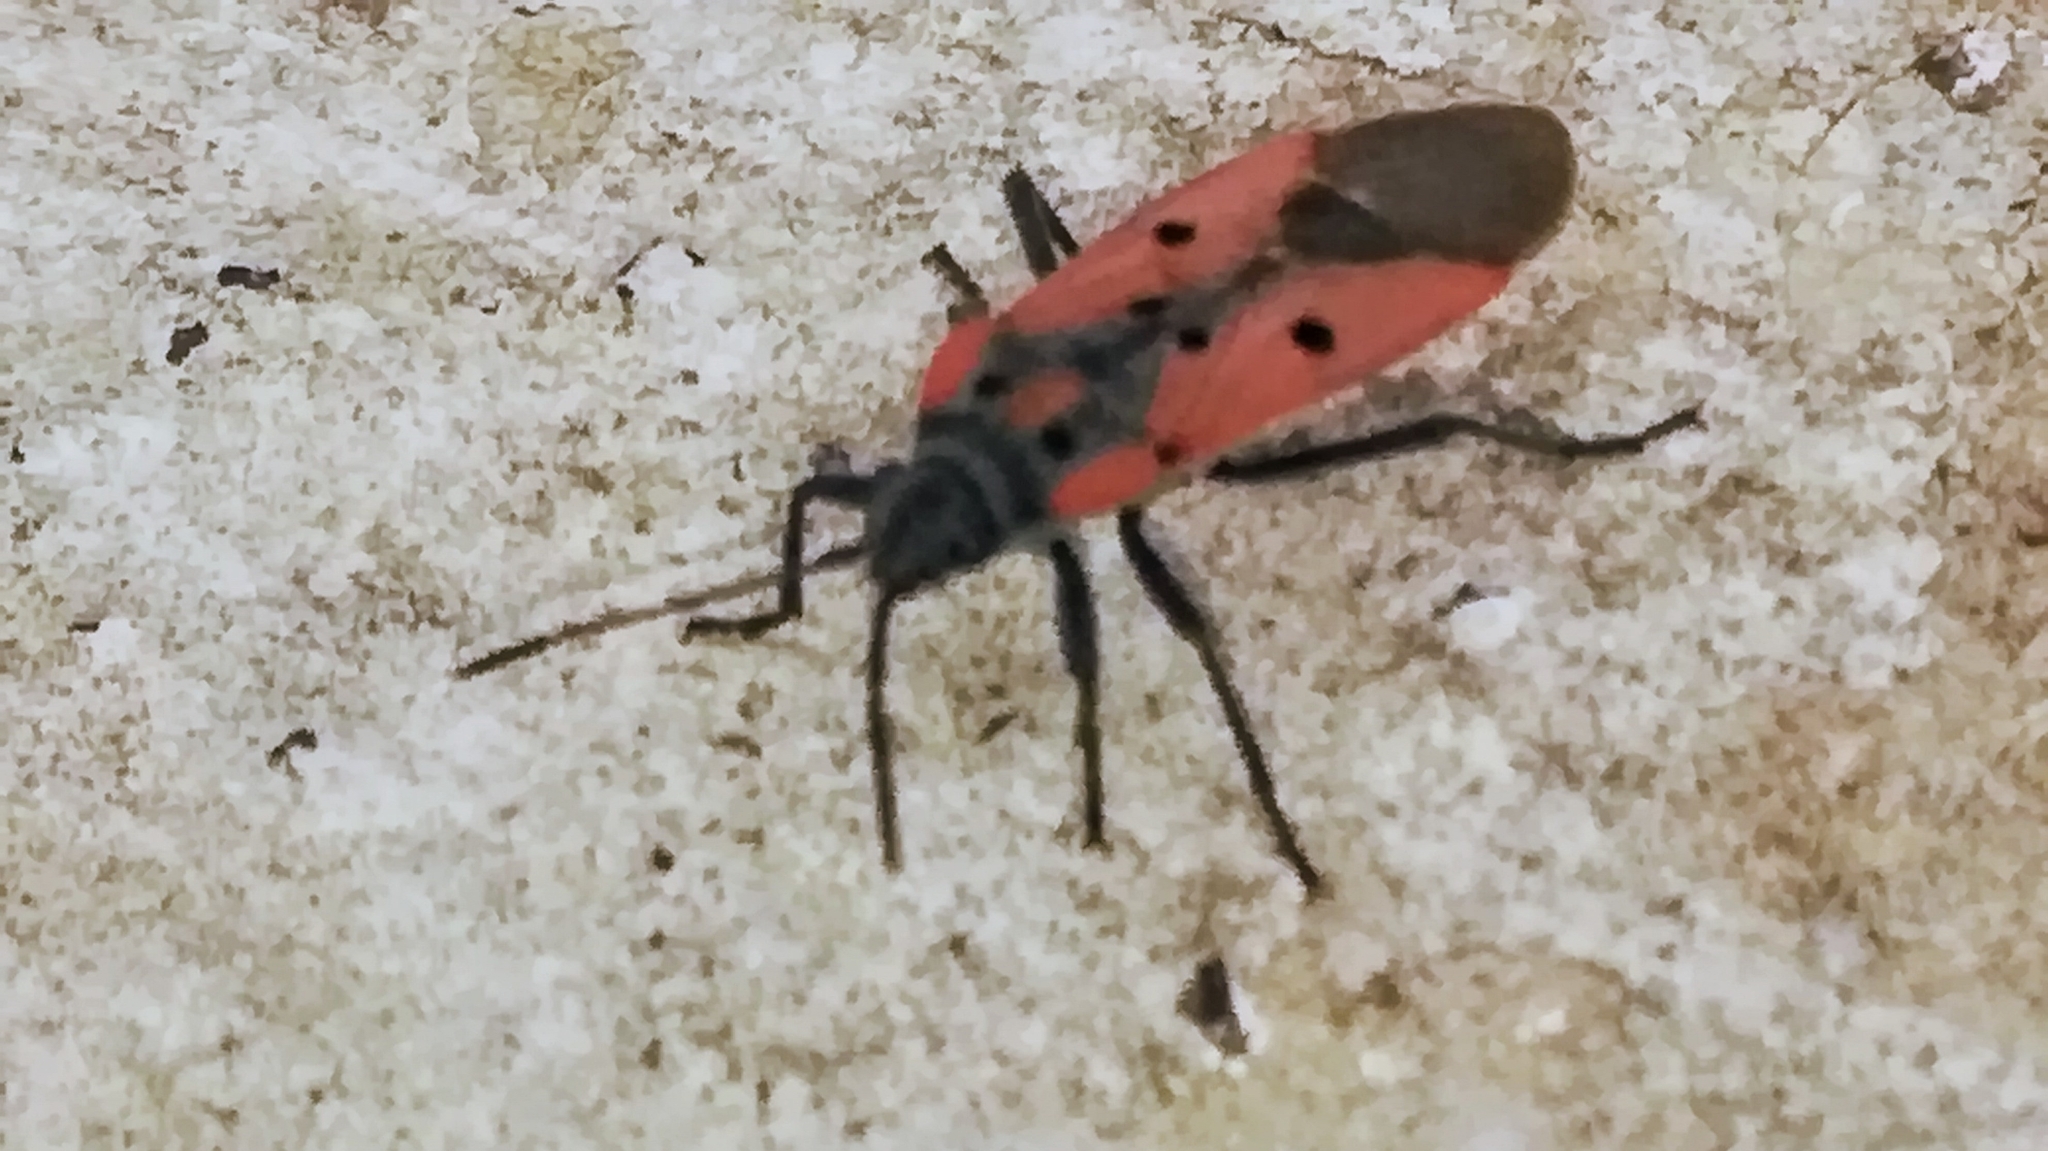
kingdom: Animalia
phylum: Arthropoda
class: Insecta
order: Hemiptera
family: Lygaeidae
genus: Lygaeus
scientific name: Lygaeus creticus
